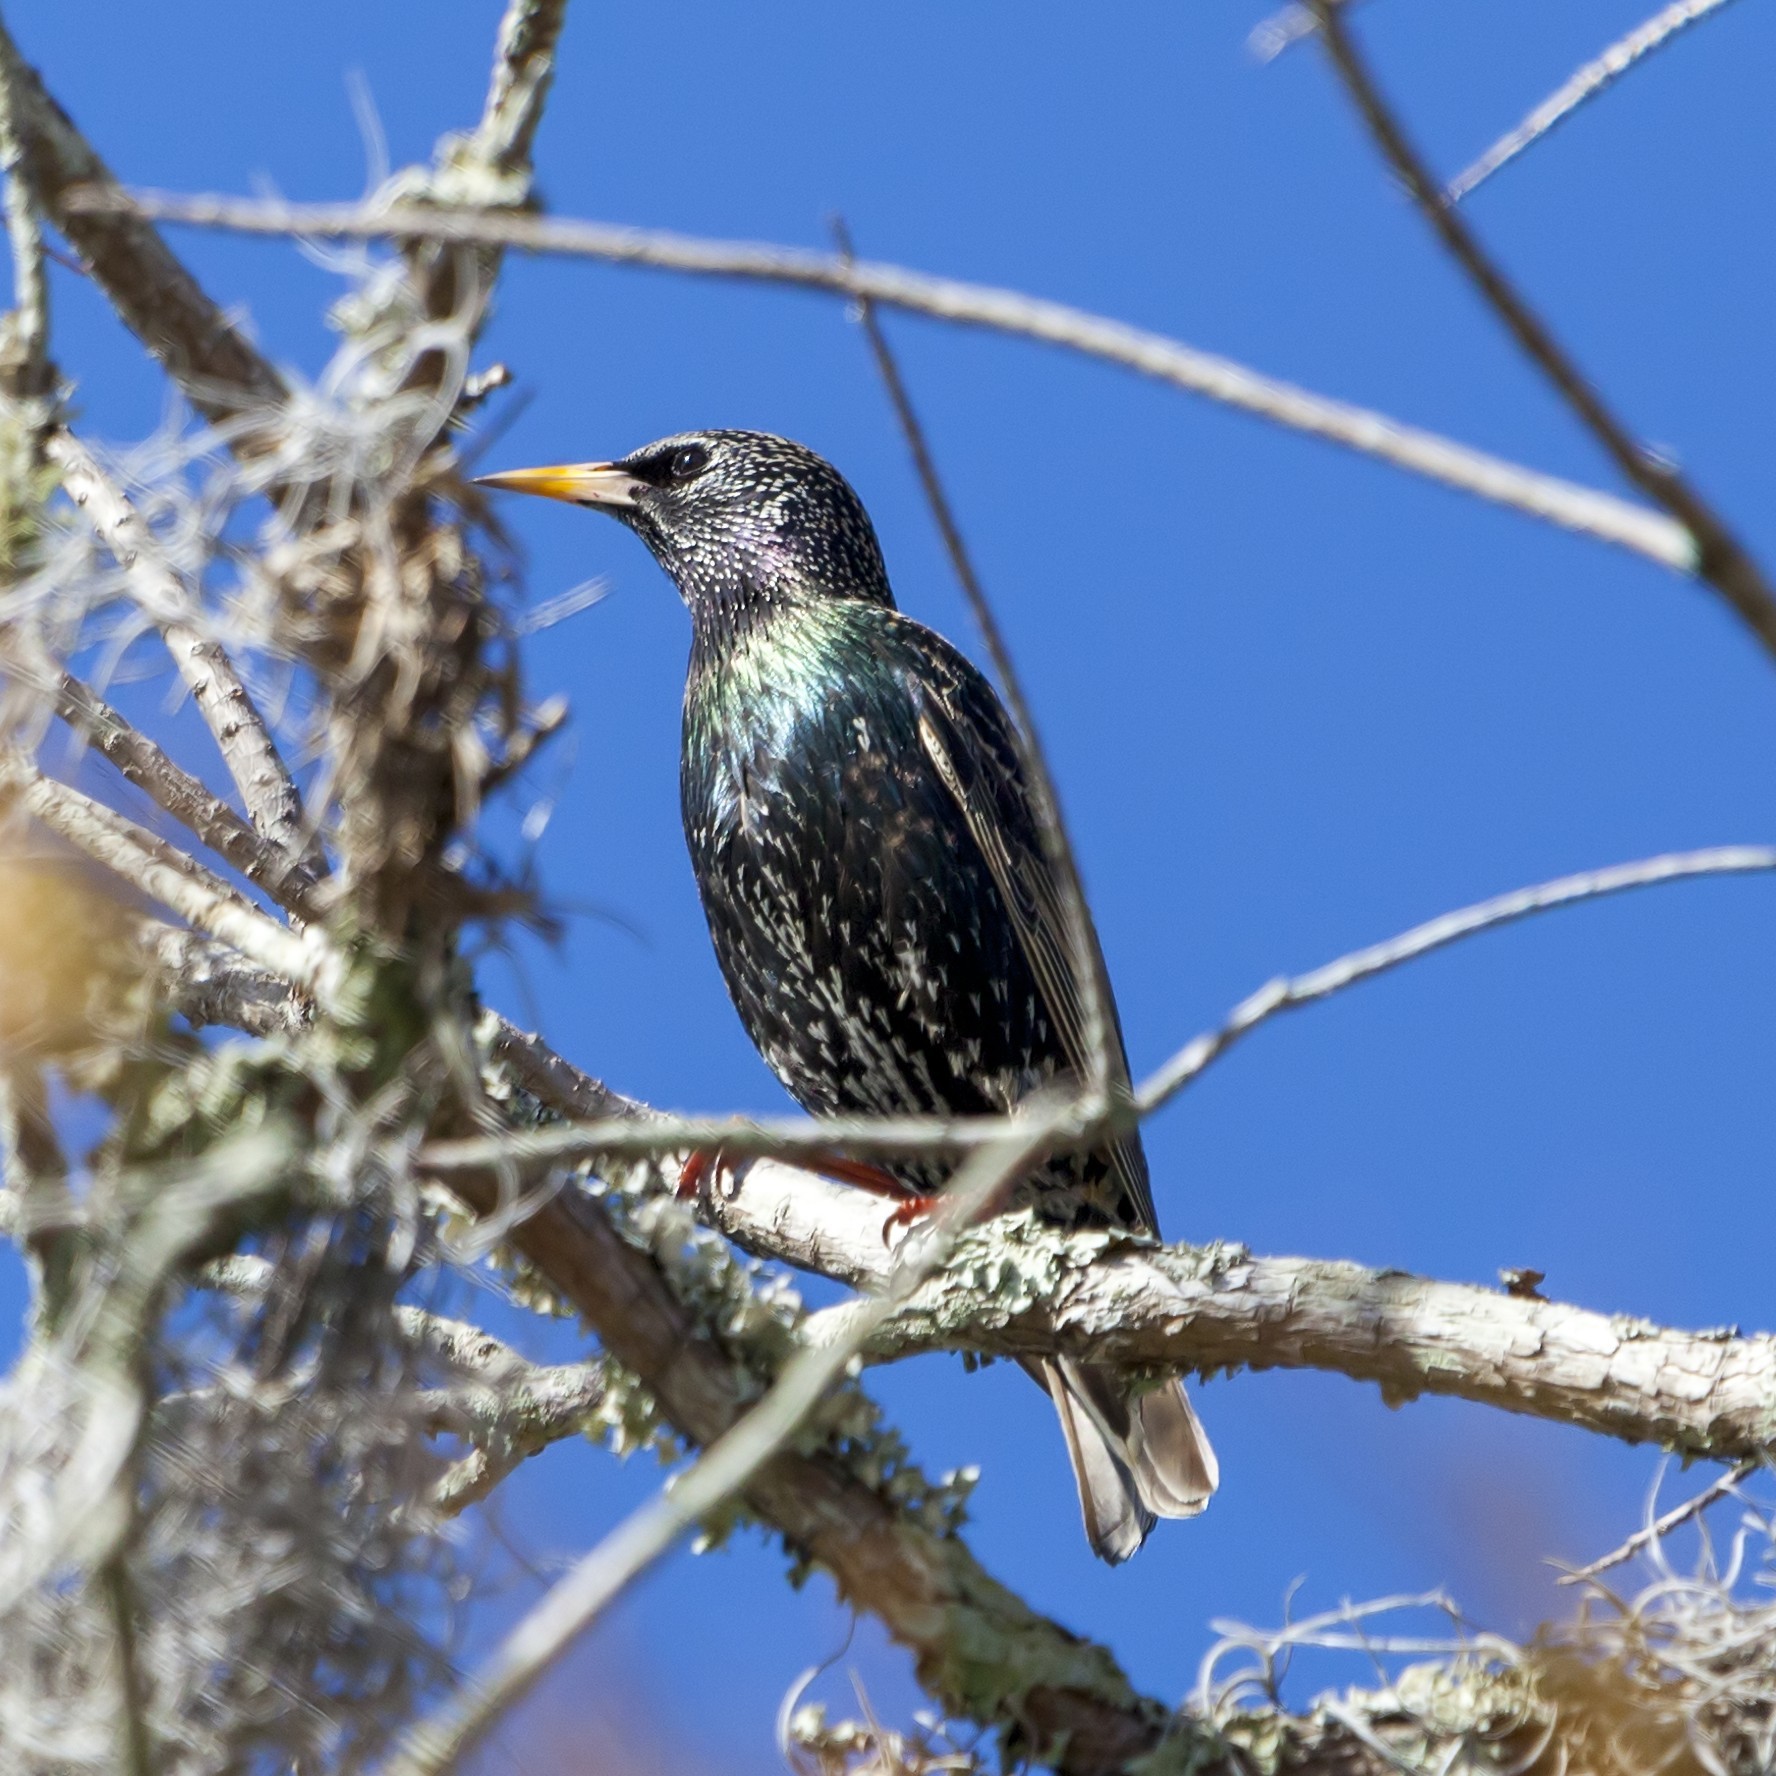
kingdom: Animalia
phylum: Chordata
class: Aves
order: Passeriformes
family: Sturnidae
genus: Sturnus
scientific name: Sturnus vulgaris
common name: Common starling
